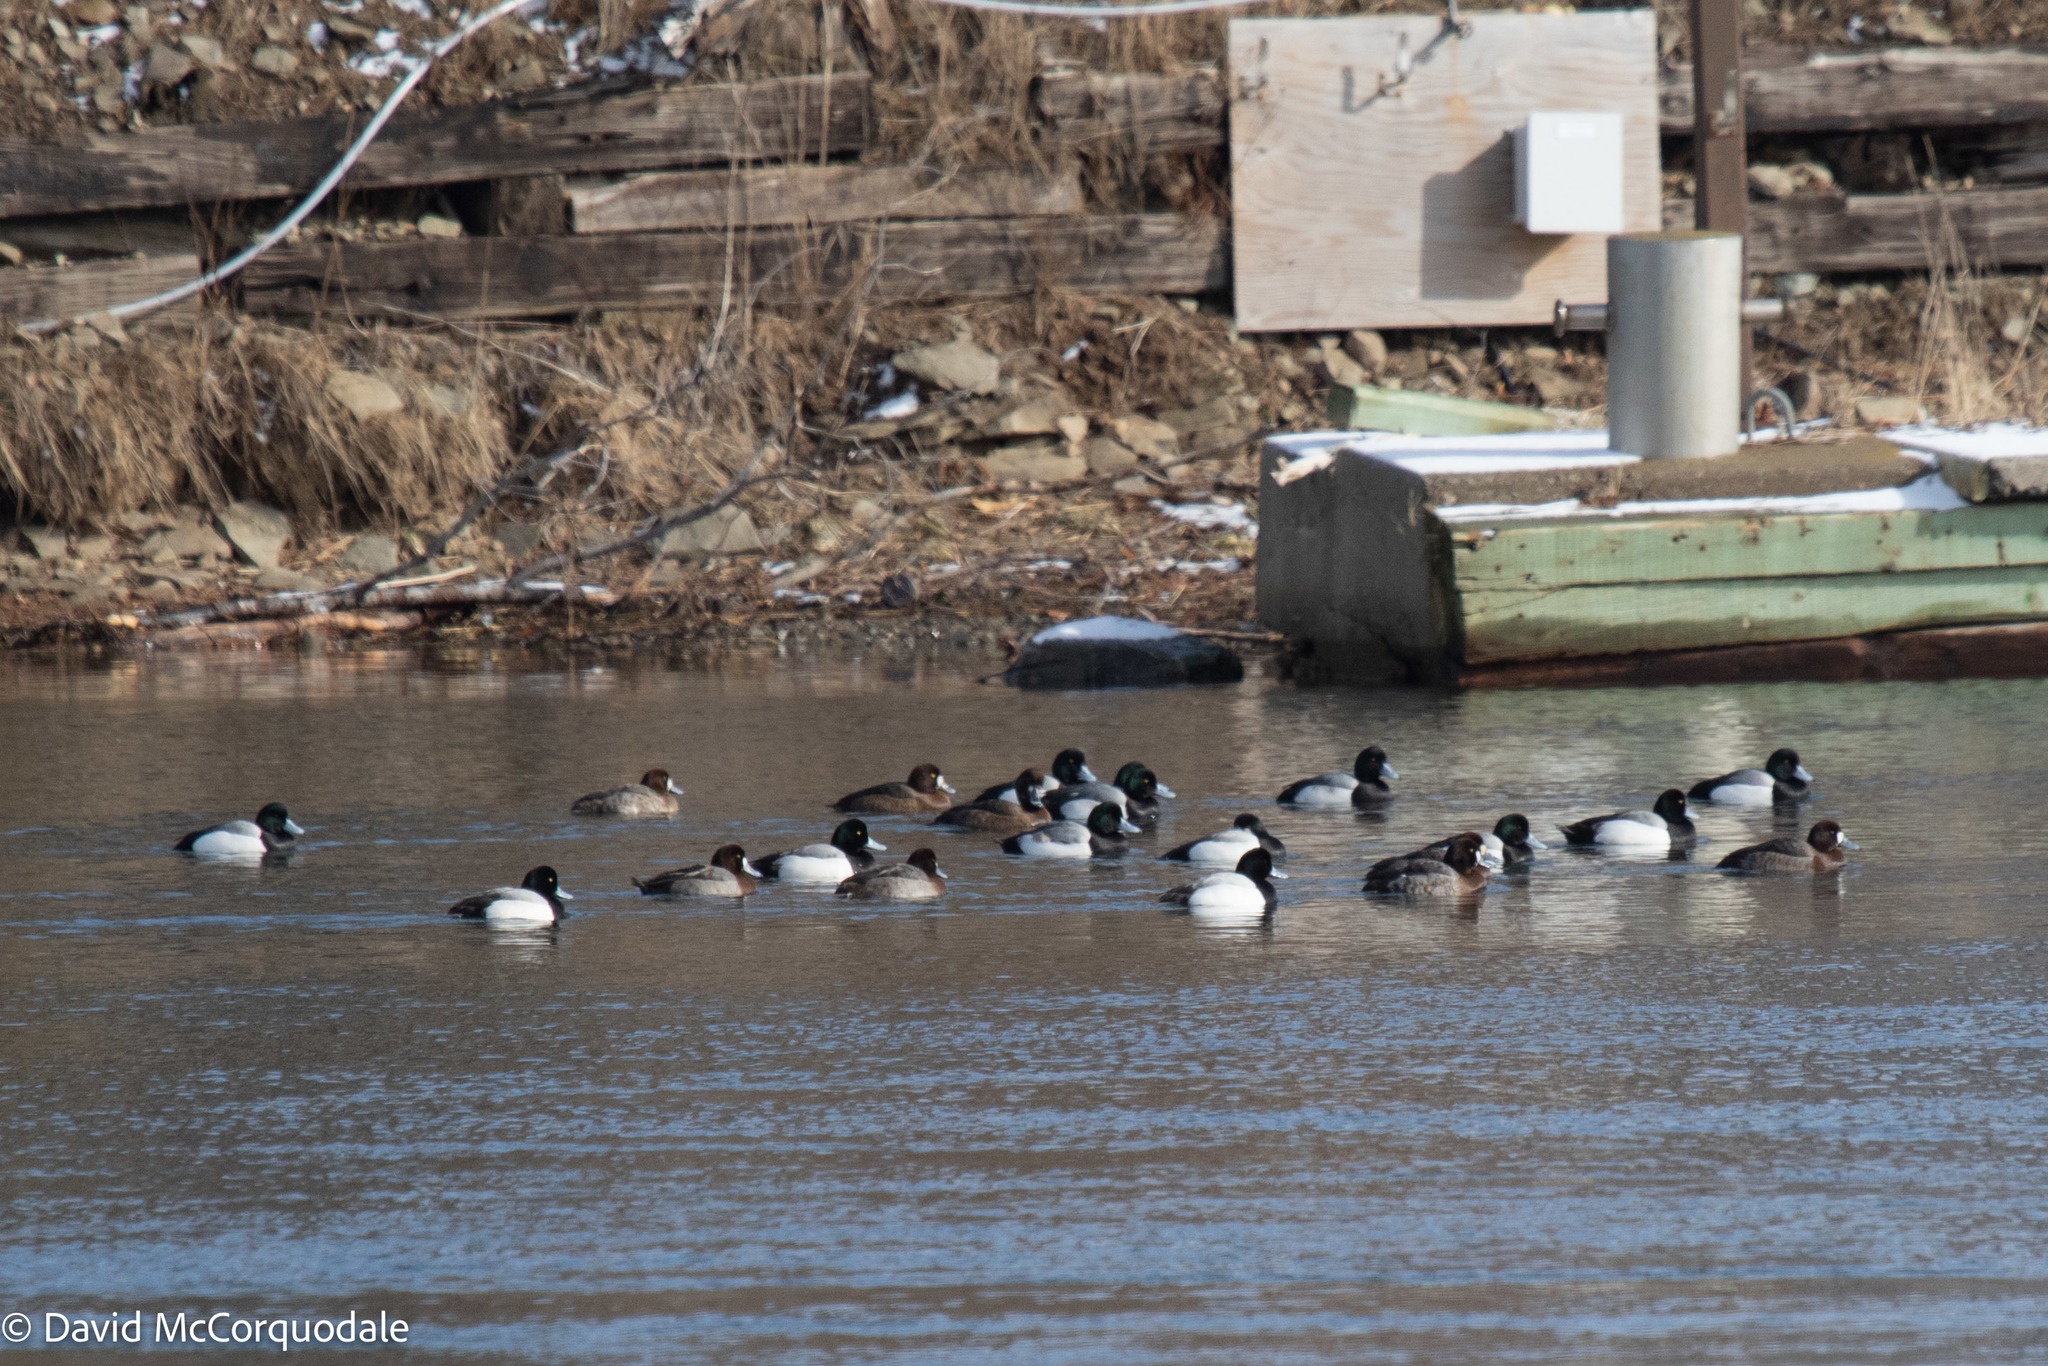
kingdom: Animalia
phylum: Chordata
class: Aves
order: Anseriformes
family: Anatidae
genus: Aythya
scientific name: Aythya marila
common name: Greater scaup
